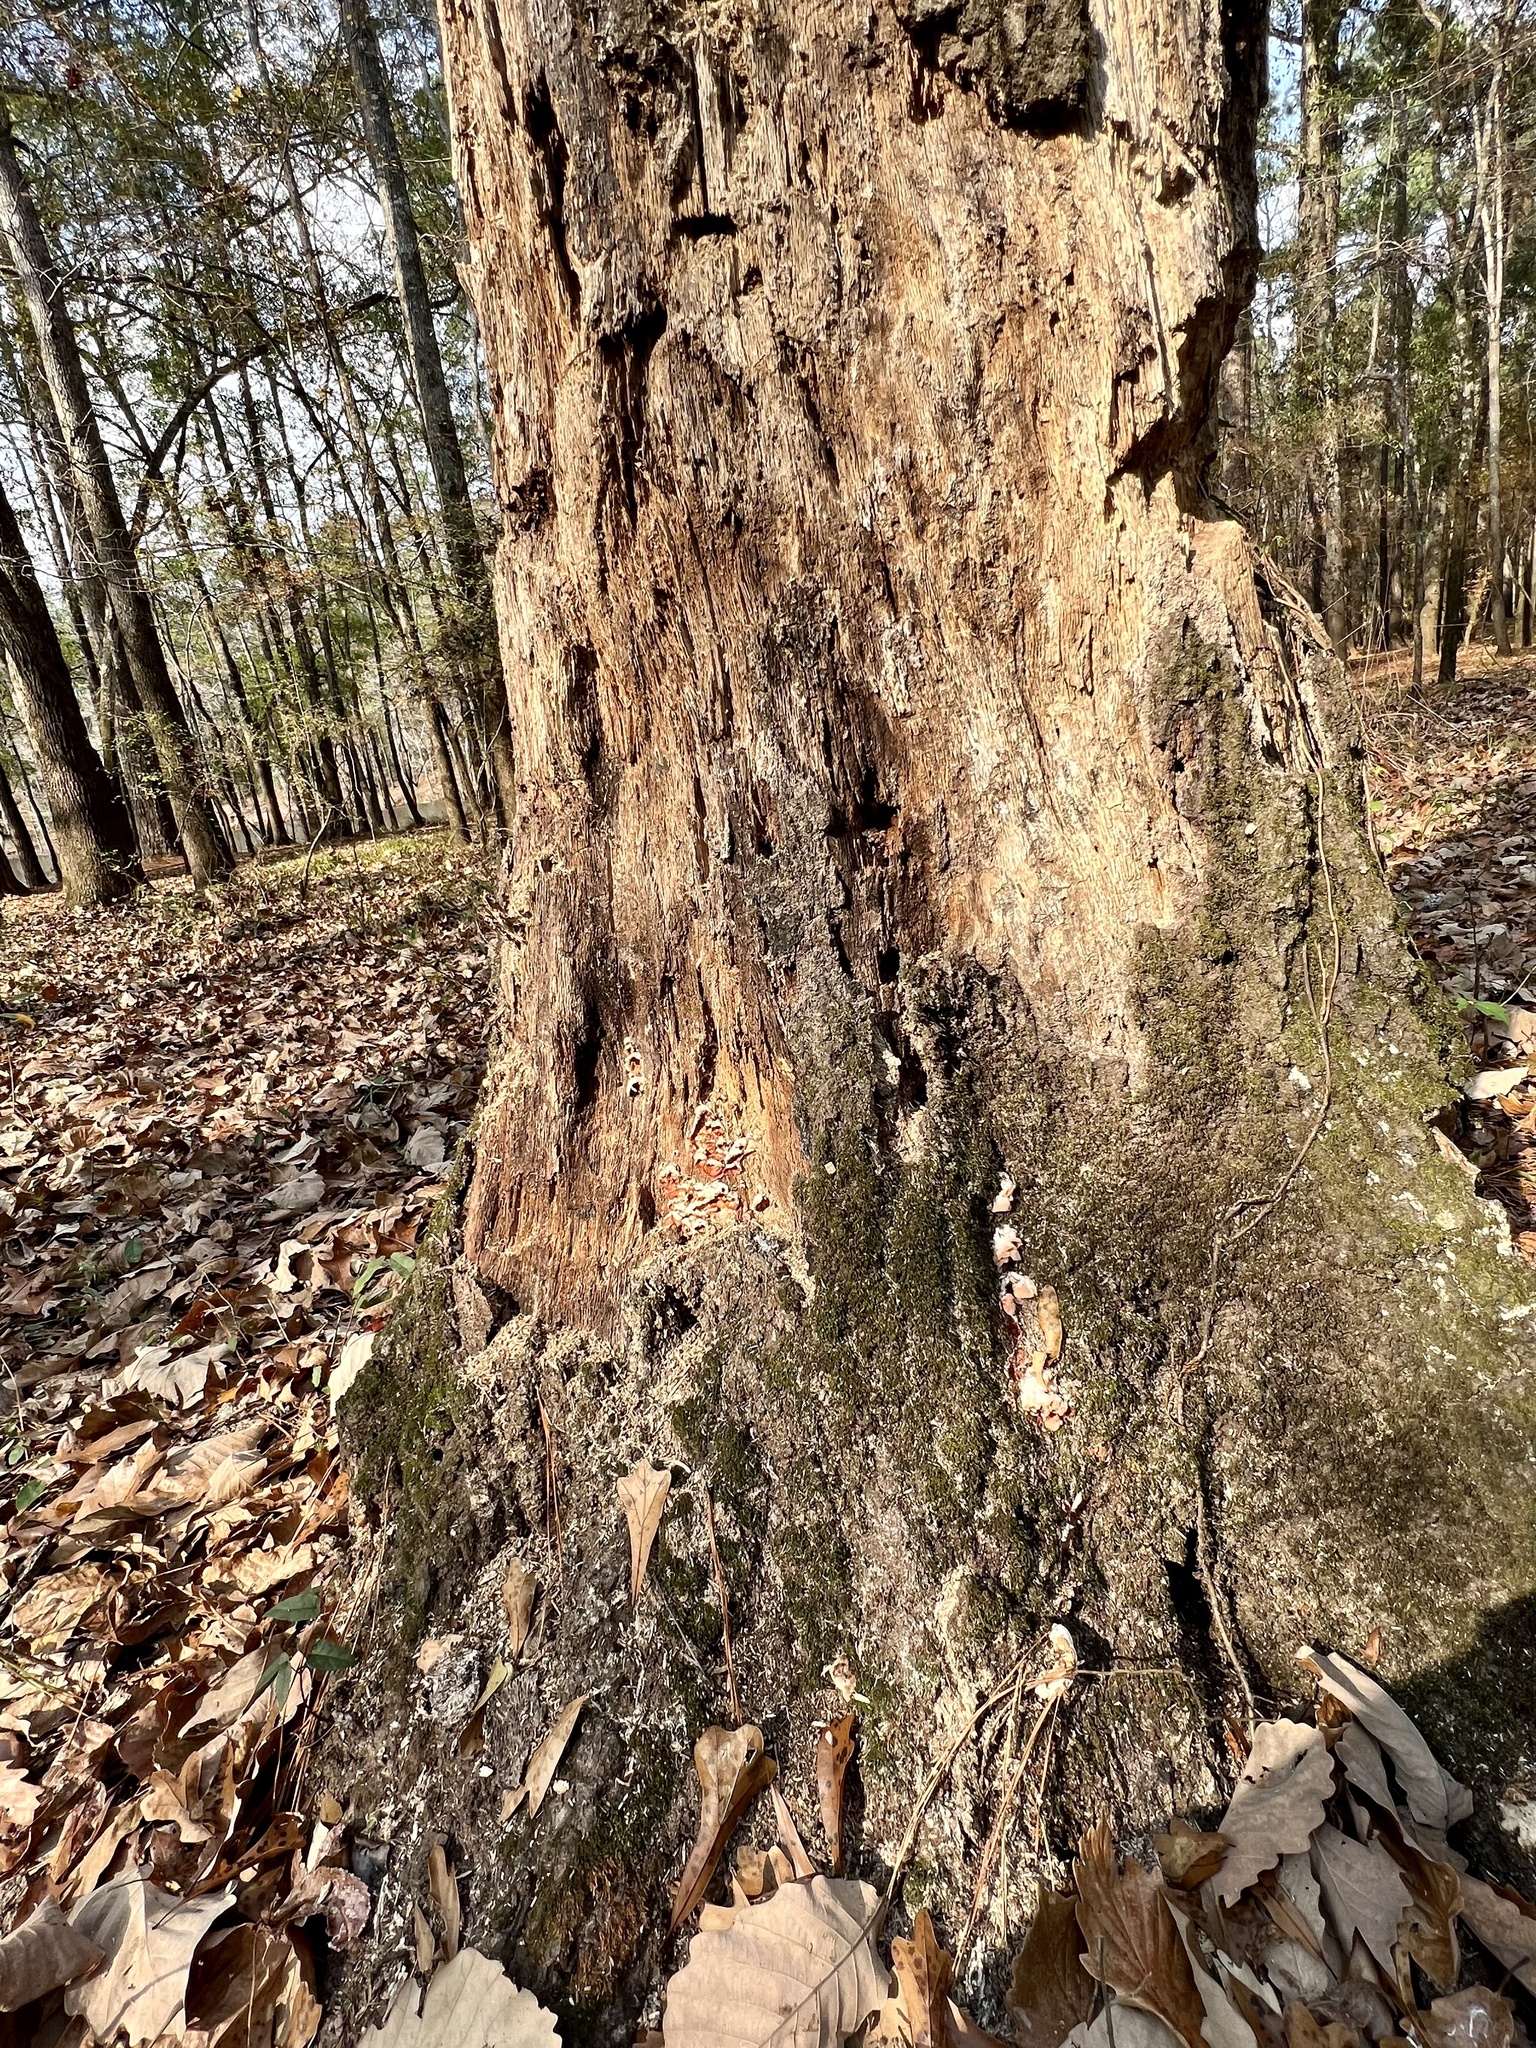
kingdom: Fungi
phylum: Basidiomycota
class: Agaricomycetes
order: Polyporales
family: Meruliaceae
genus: Phlebia
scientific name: Phlebia tremellosa
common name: Jelly rot
